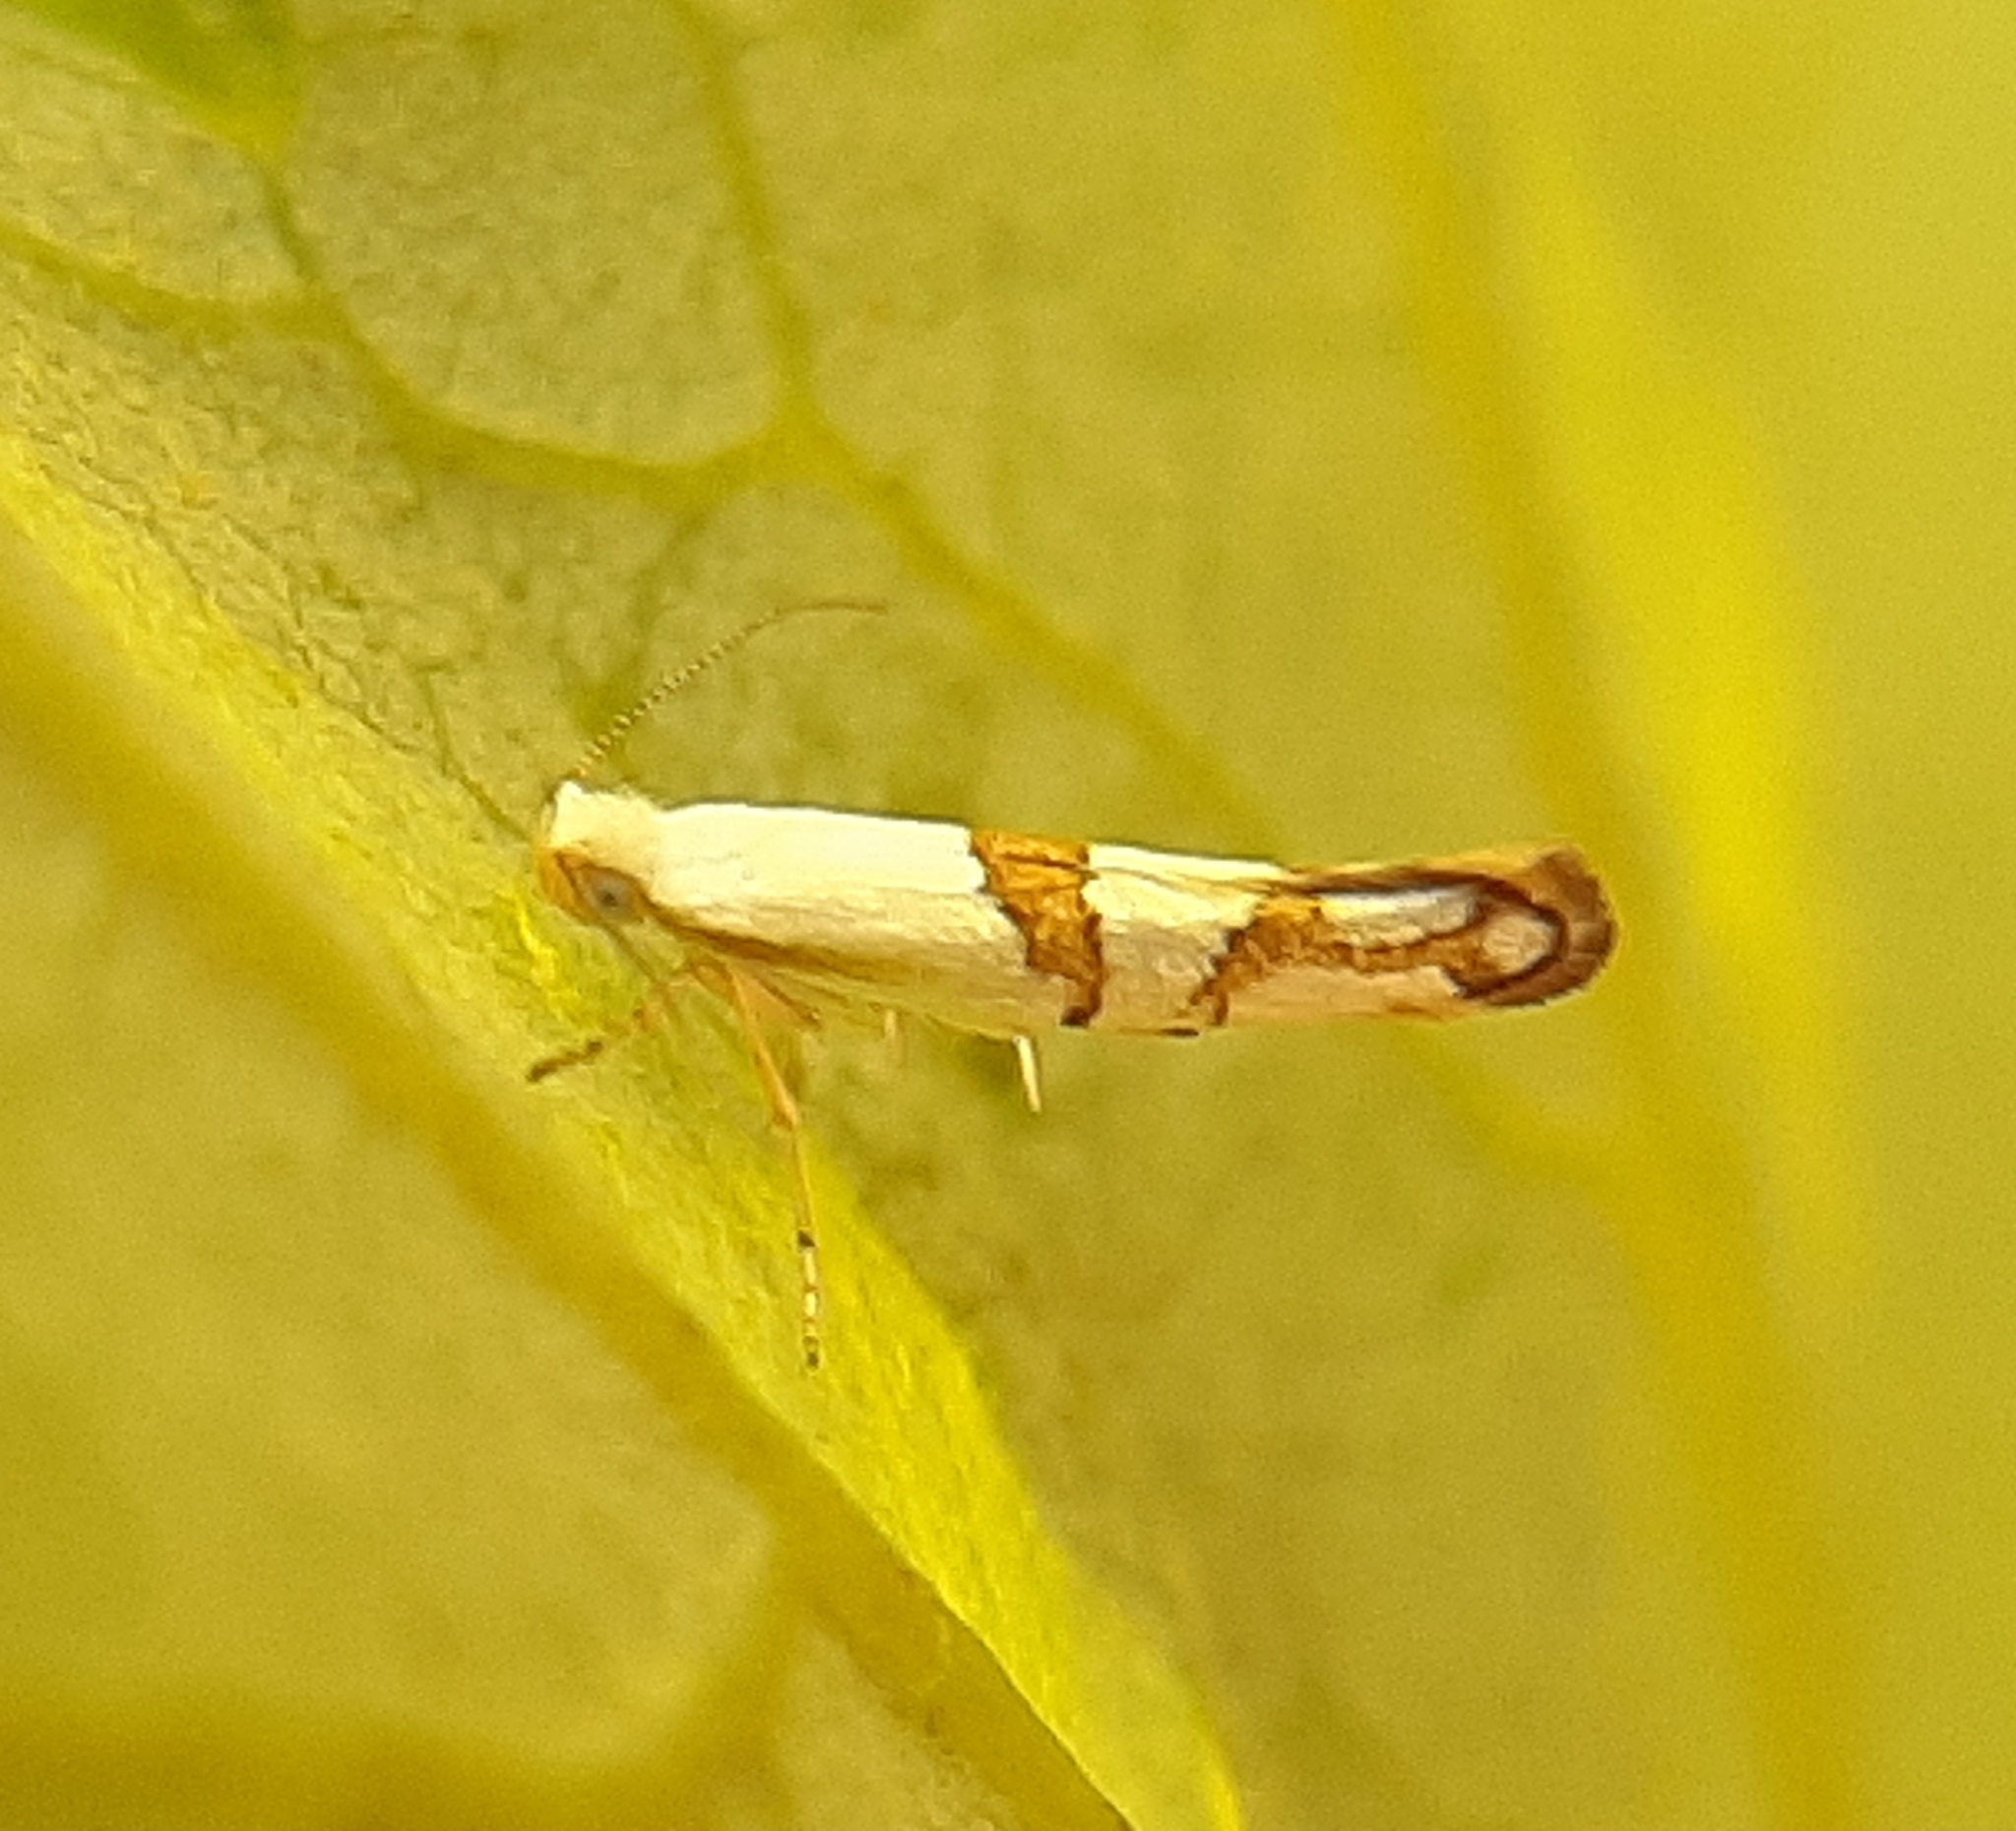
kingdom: Animalia
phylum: Arthropoda
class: Insecta
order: Lepidoptera
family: Argyresthiidae
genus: Argyresthia
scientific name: Argyresthia oreasella
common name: Cherry shoot borer moth
